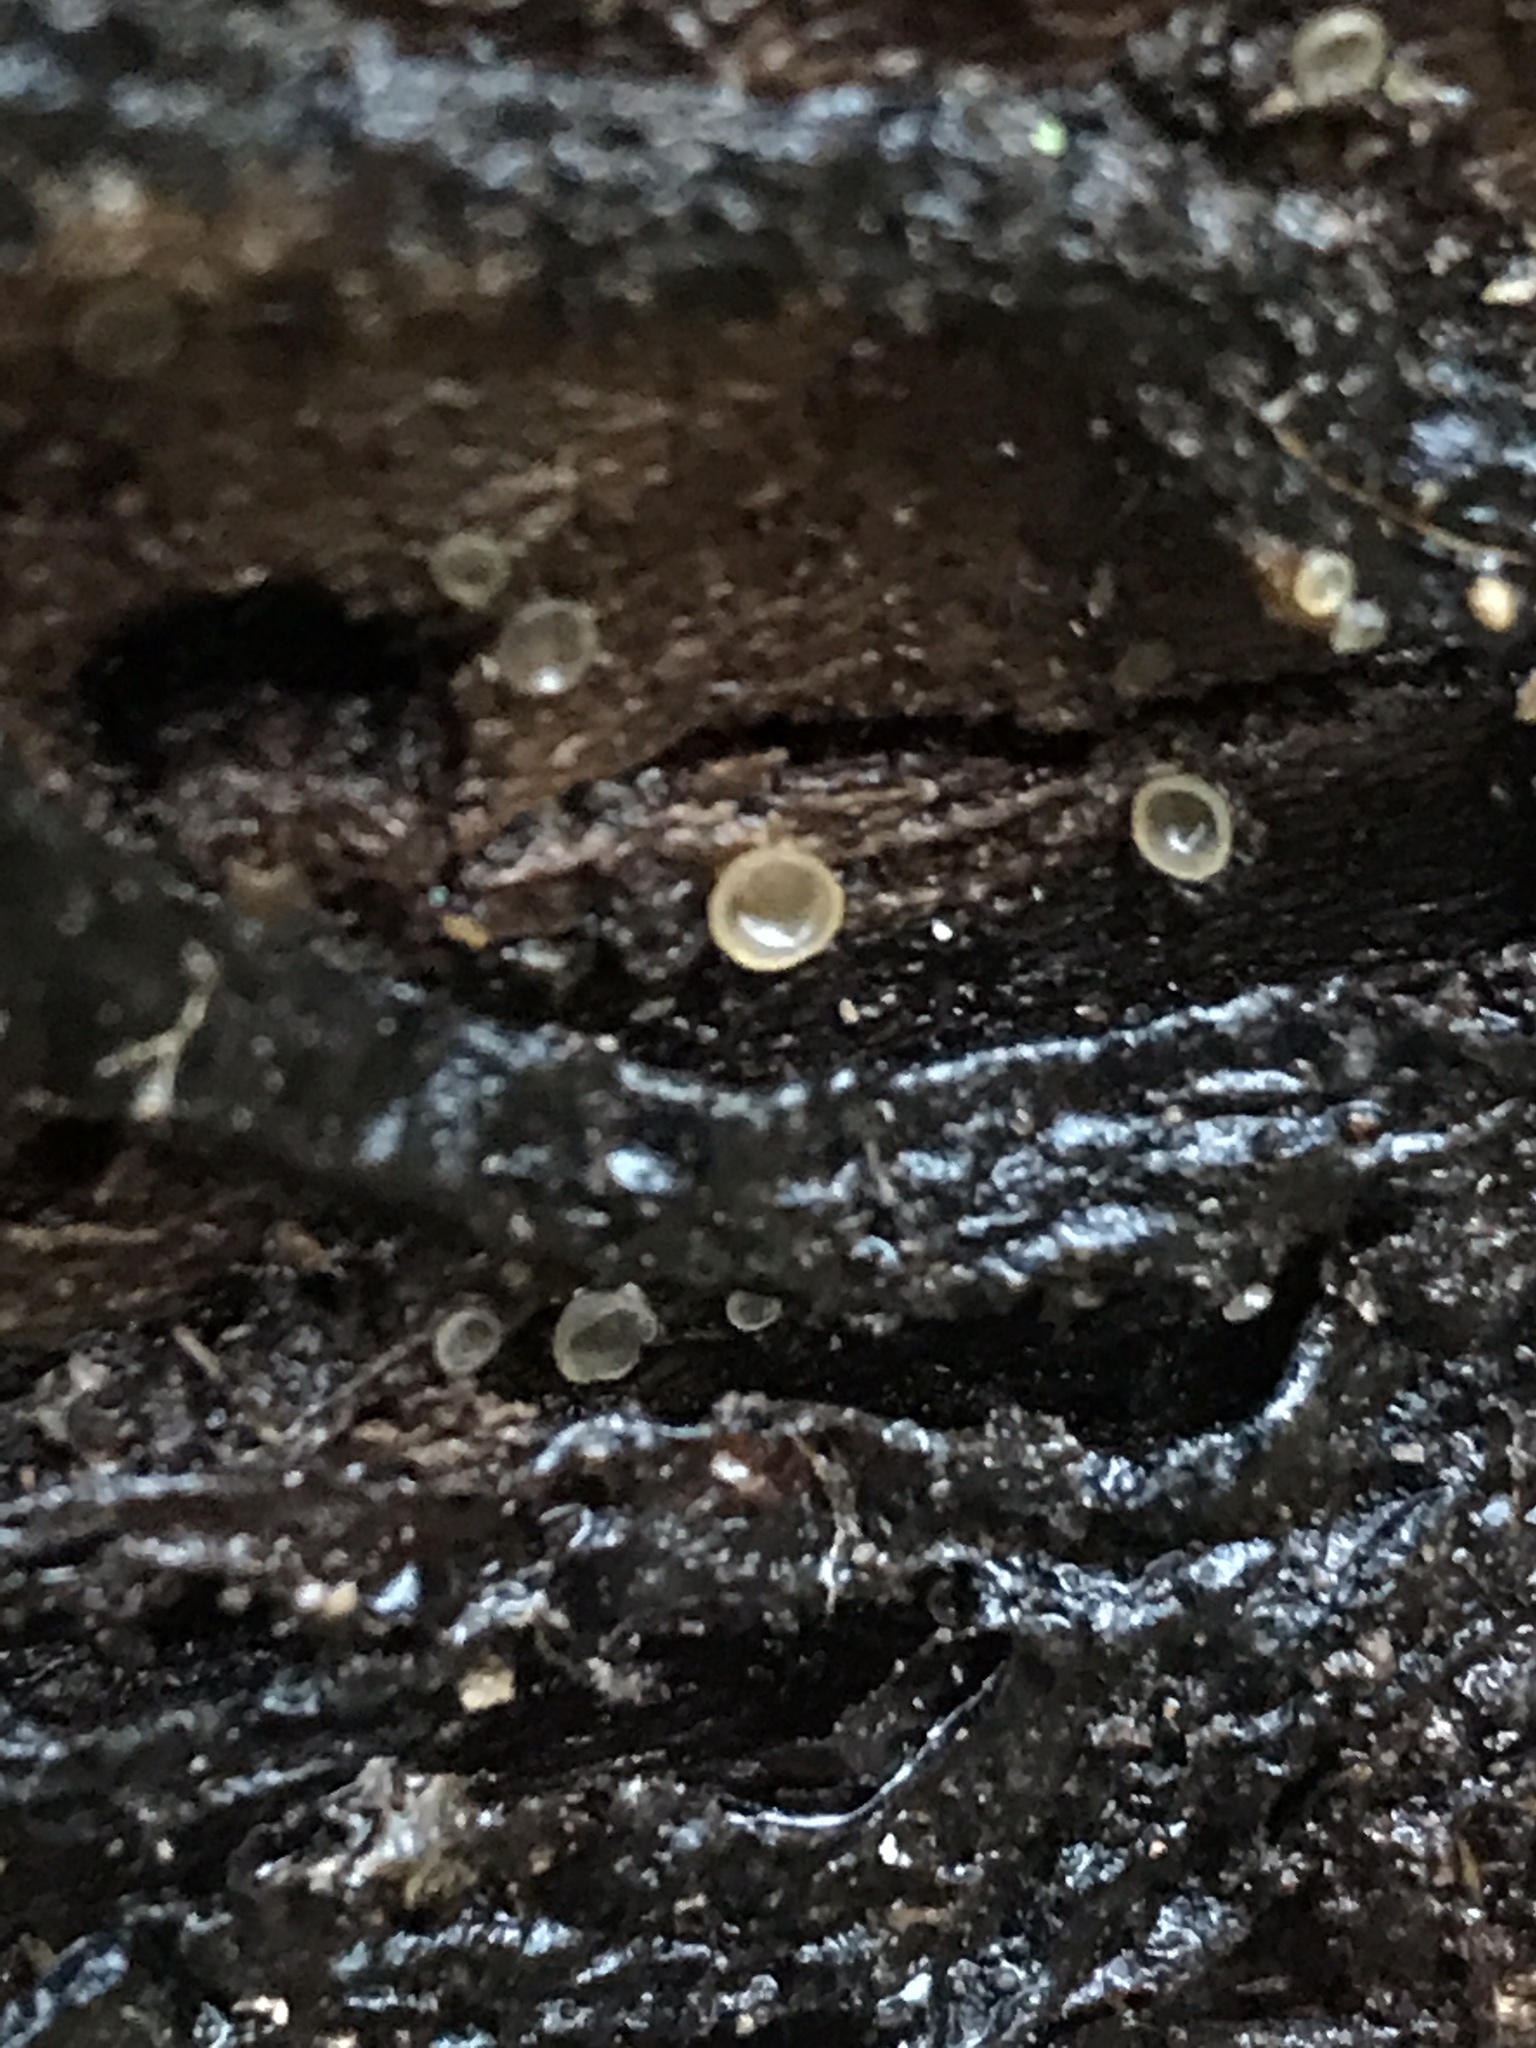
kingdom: Fungi
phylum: Ascomycota
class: Orbiliomycetes
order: Orbiliales
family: Orbiliaceae
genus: Hyalorbilia
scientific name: Hyalorbilia lunata
